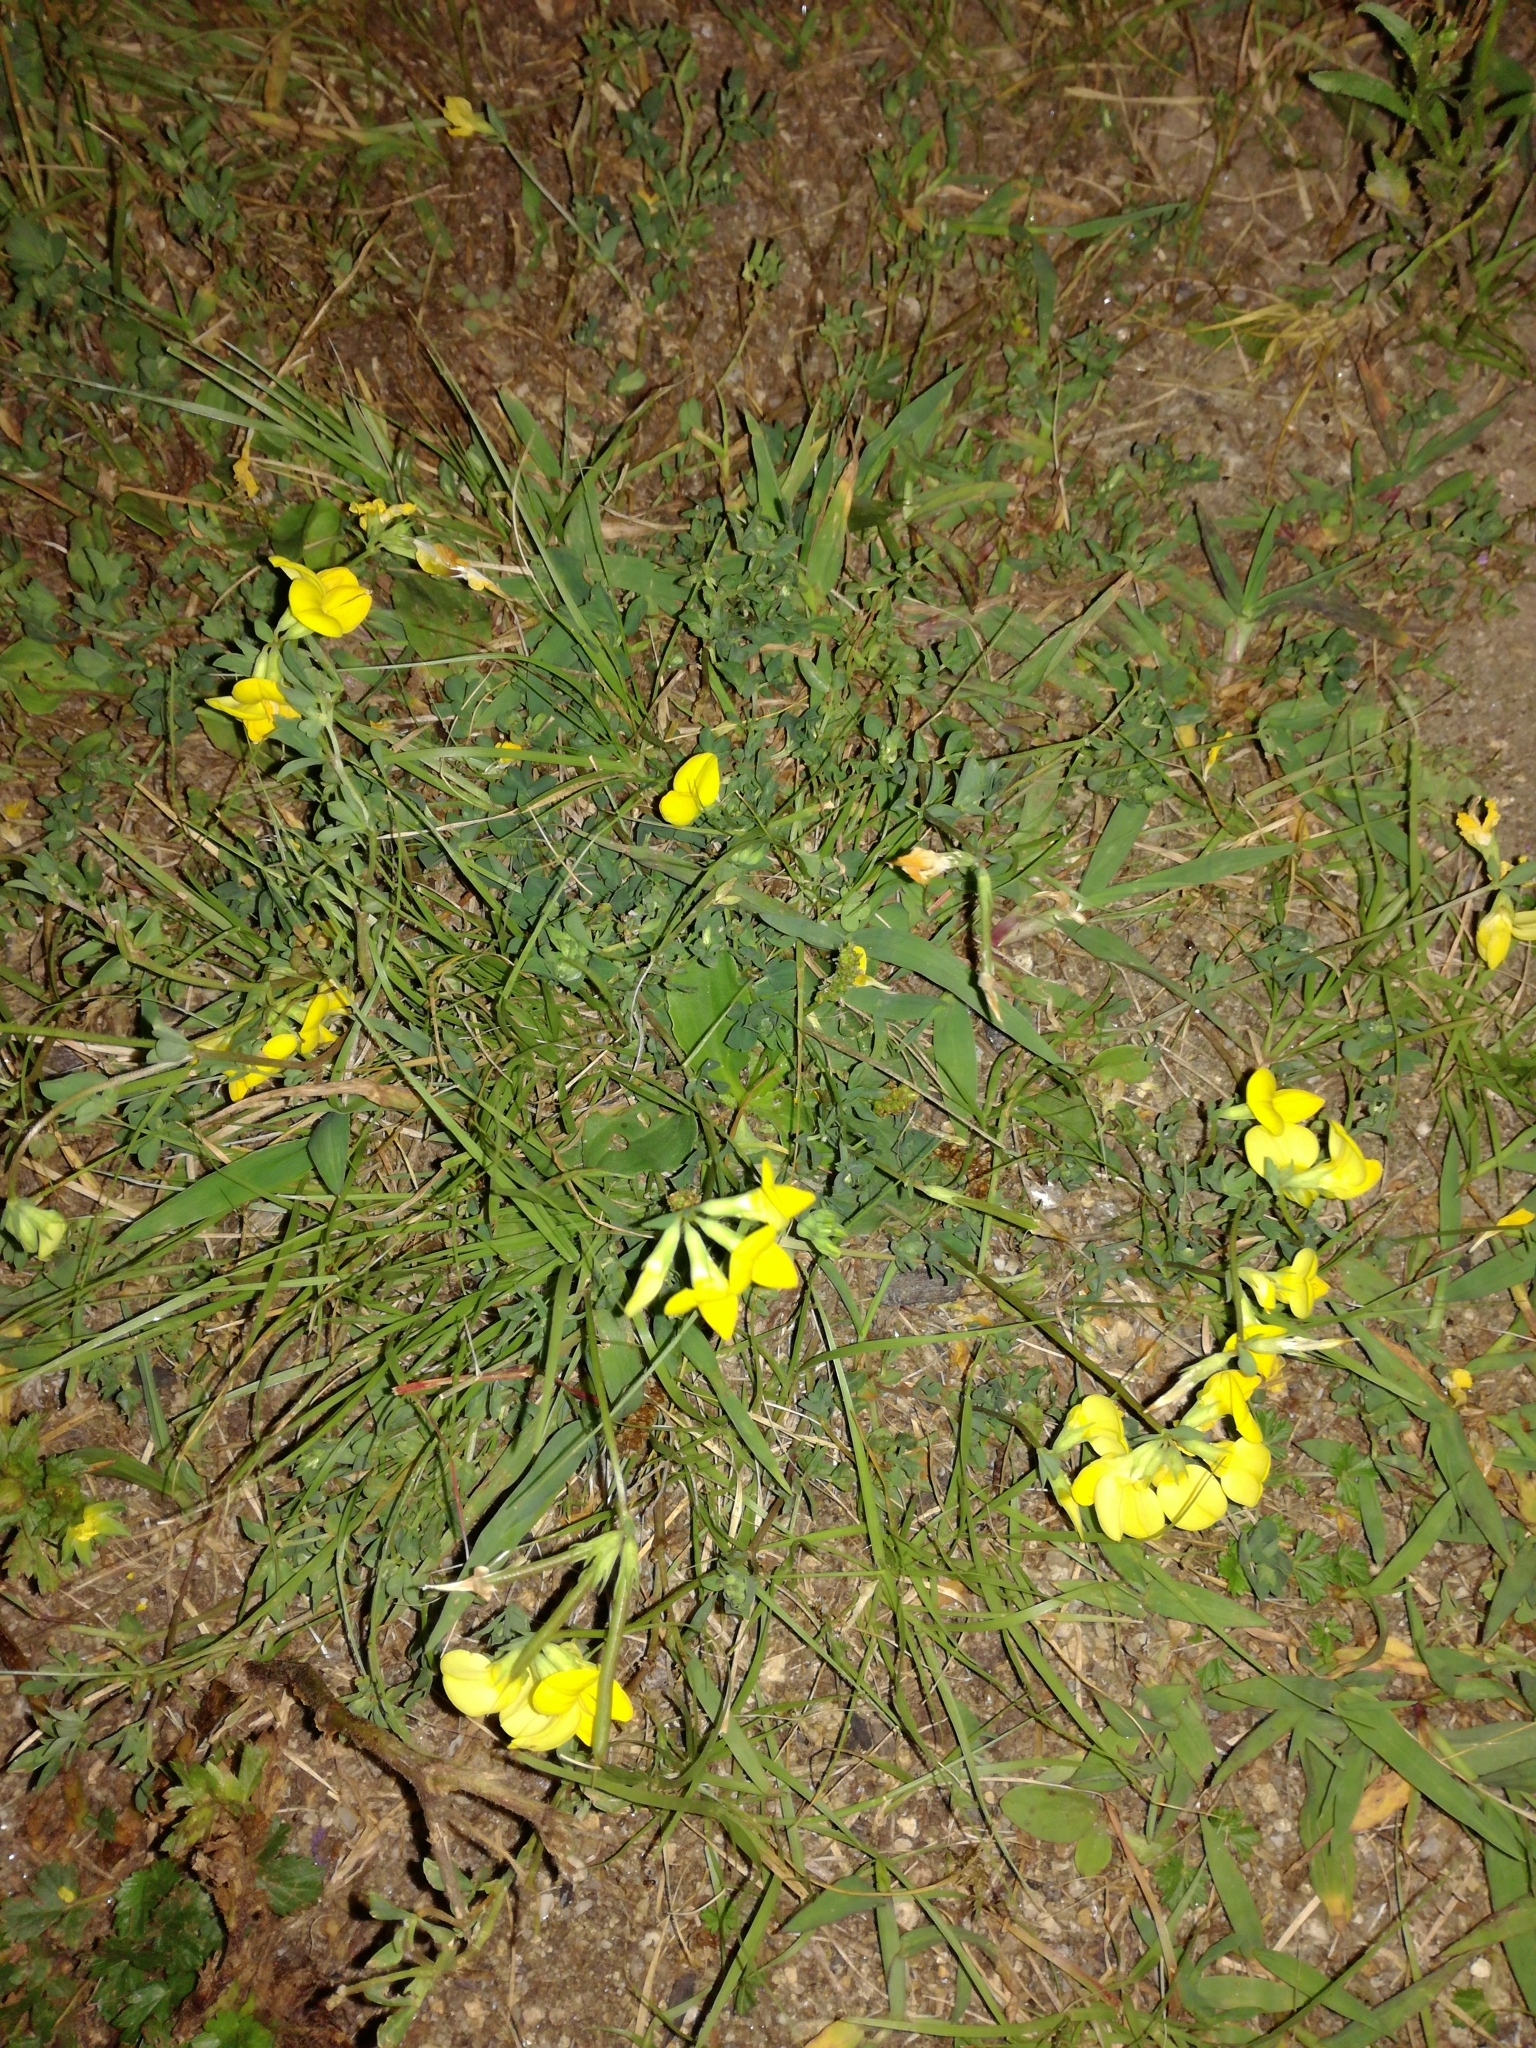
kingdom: Plantae
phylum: Tracheophyta
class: Magnoliopsida
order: Fabales
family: Fabaceae
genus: Lotus
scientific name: Lotus corniculatus
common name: Common bird's-foot-trefoil
